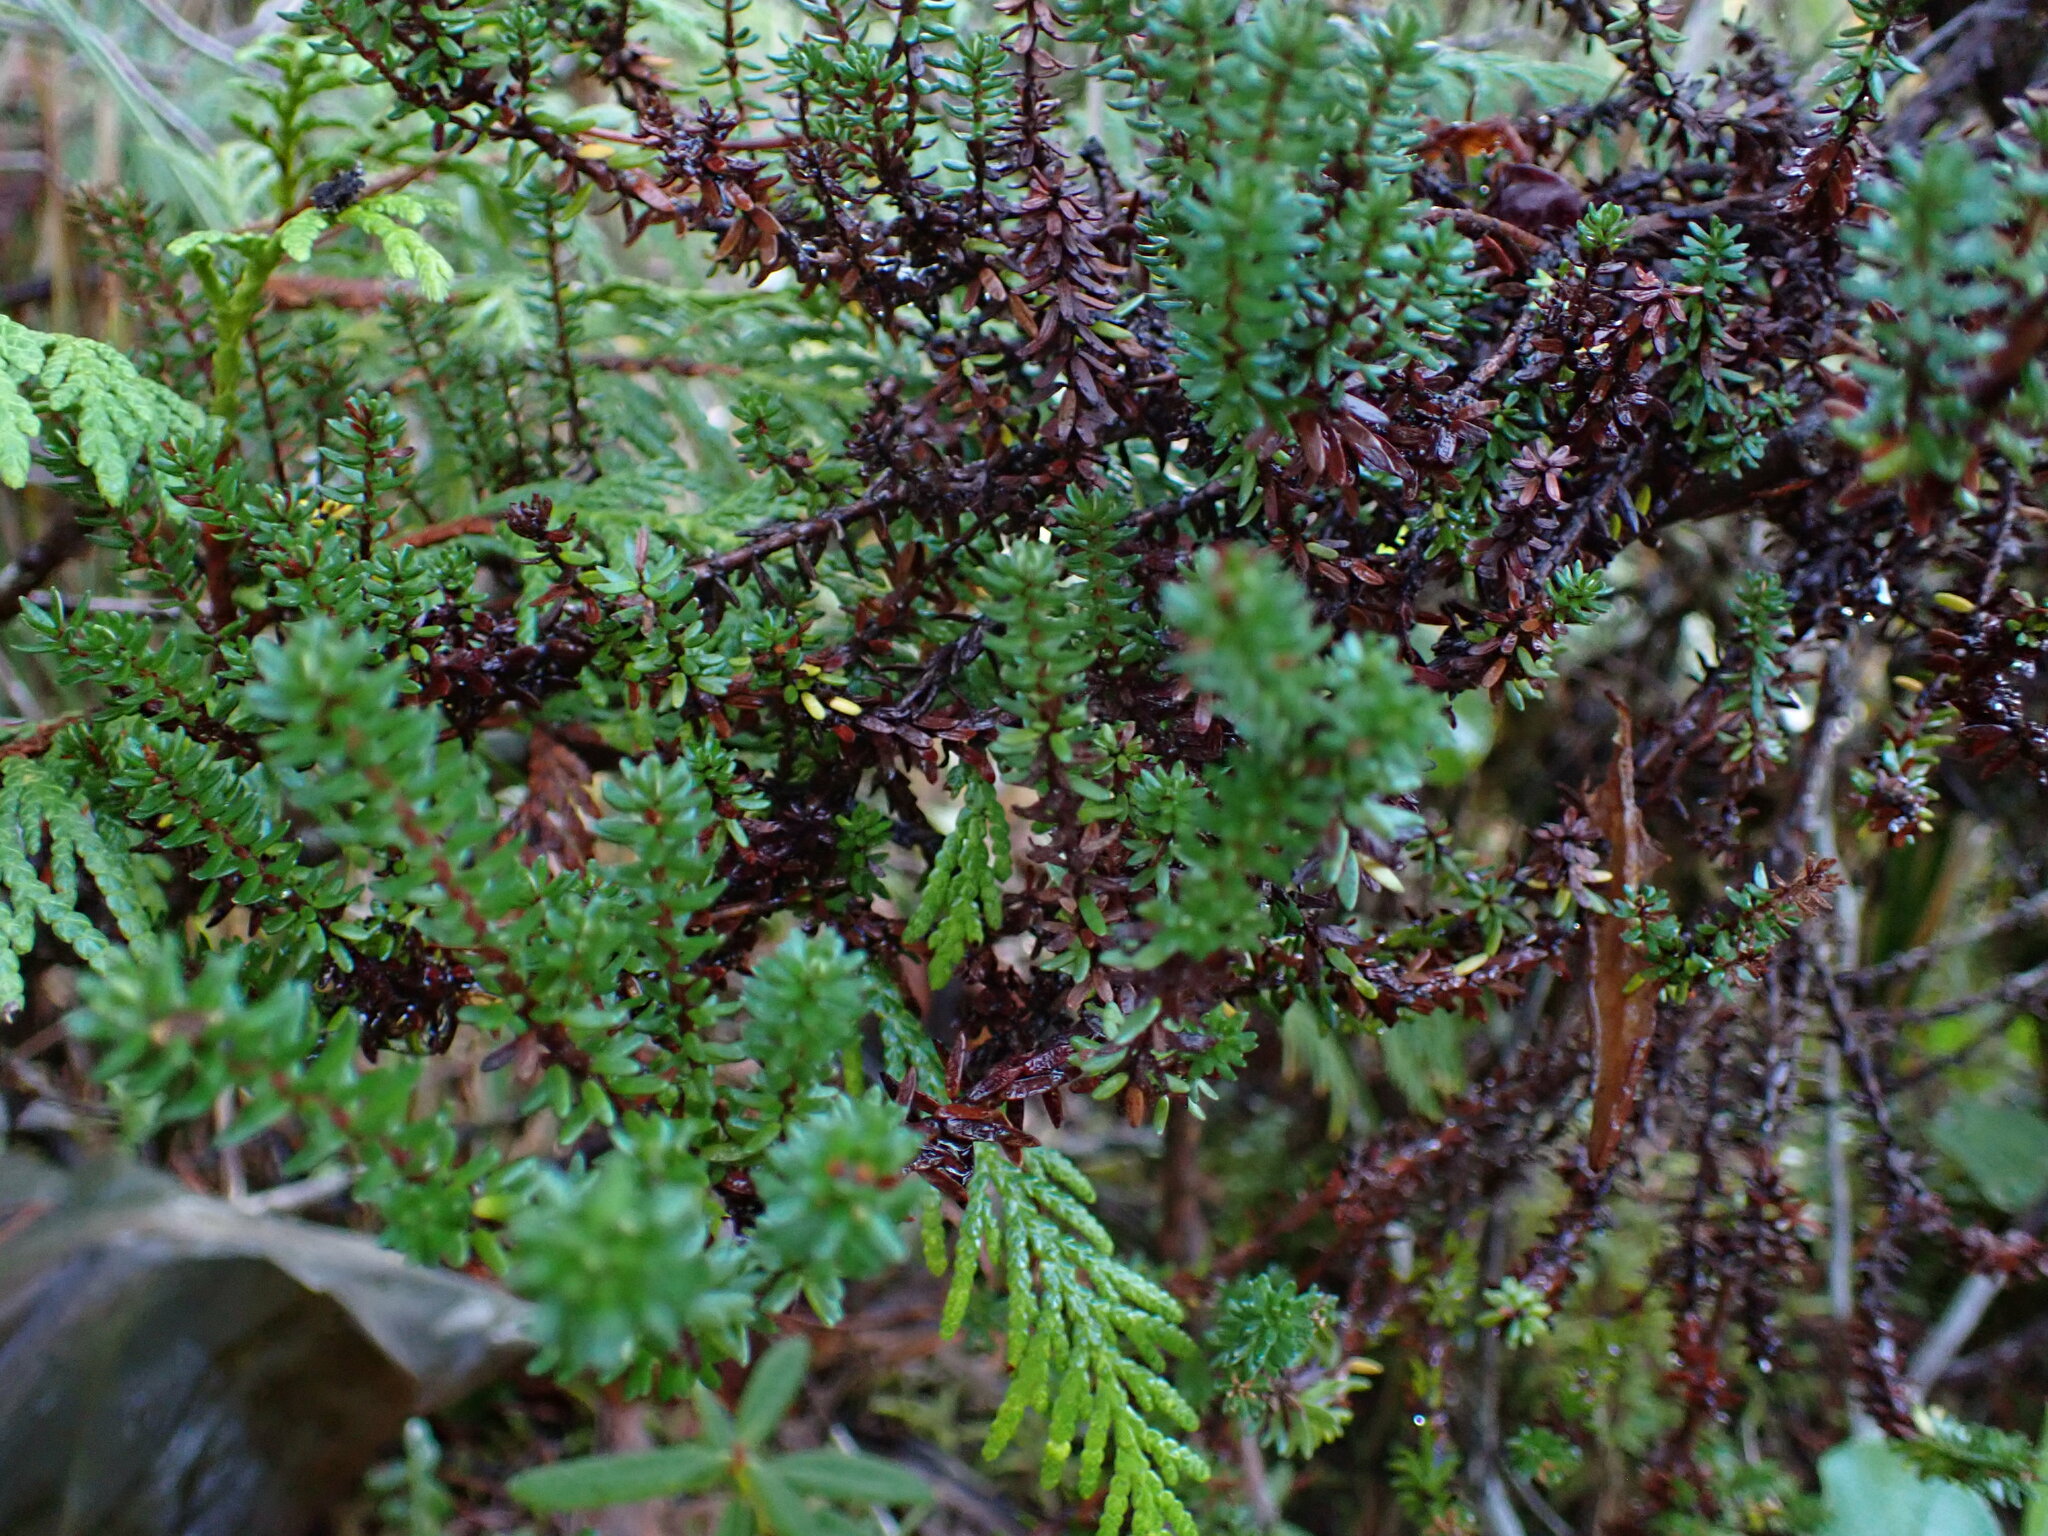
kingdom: Plantae
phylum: Tracheophyta
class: Magnoliopsida
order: Ericales
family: Ericaceae
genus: Empetrum
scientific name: Empetrum nigrum
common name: Black crowberry
